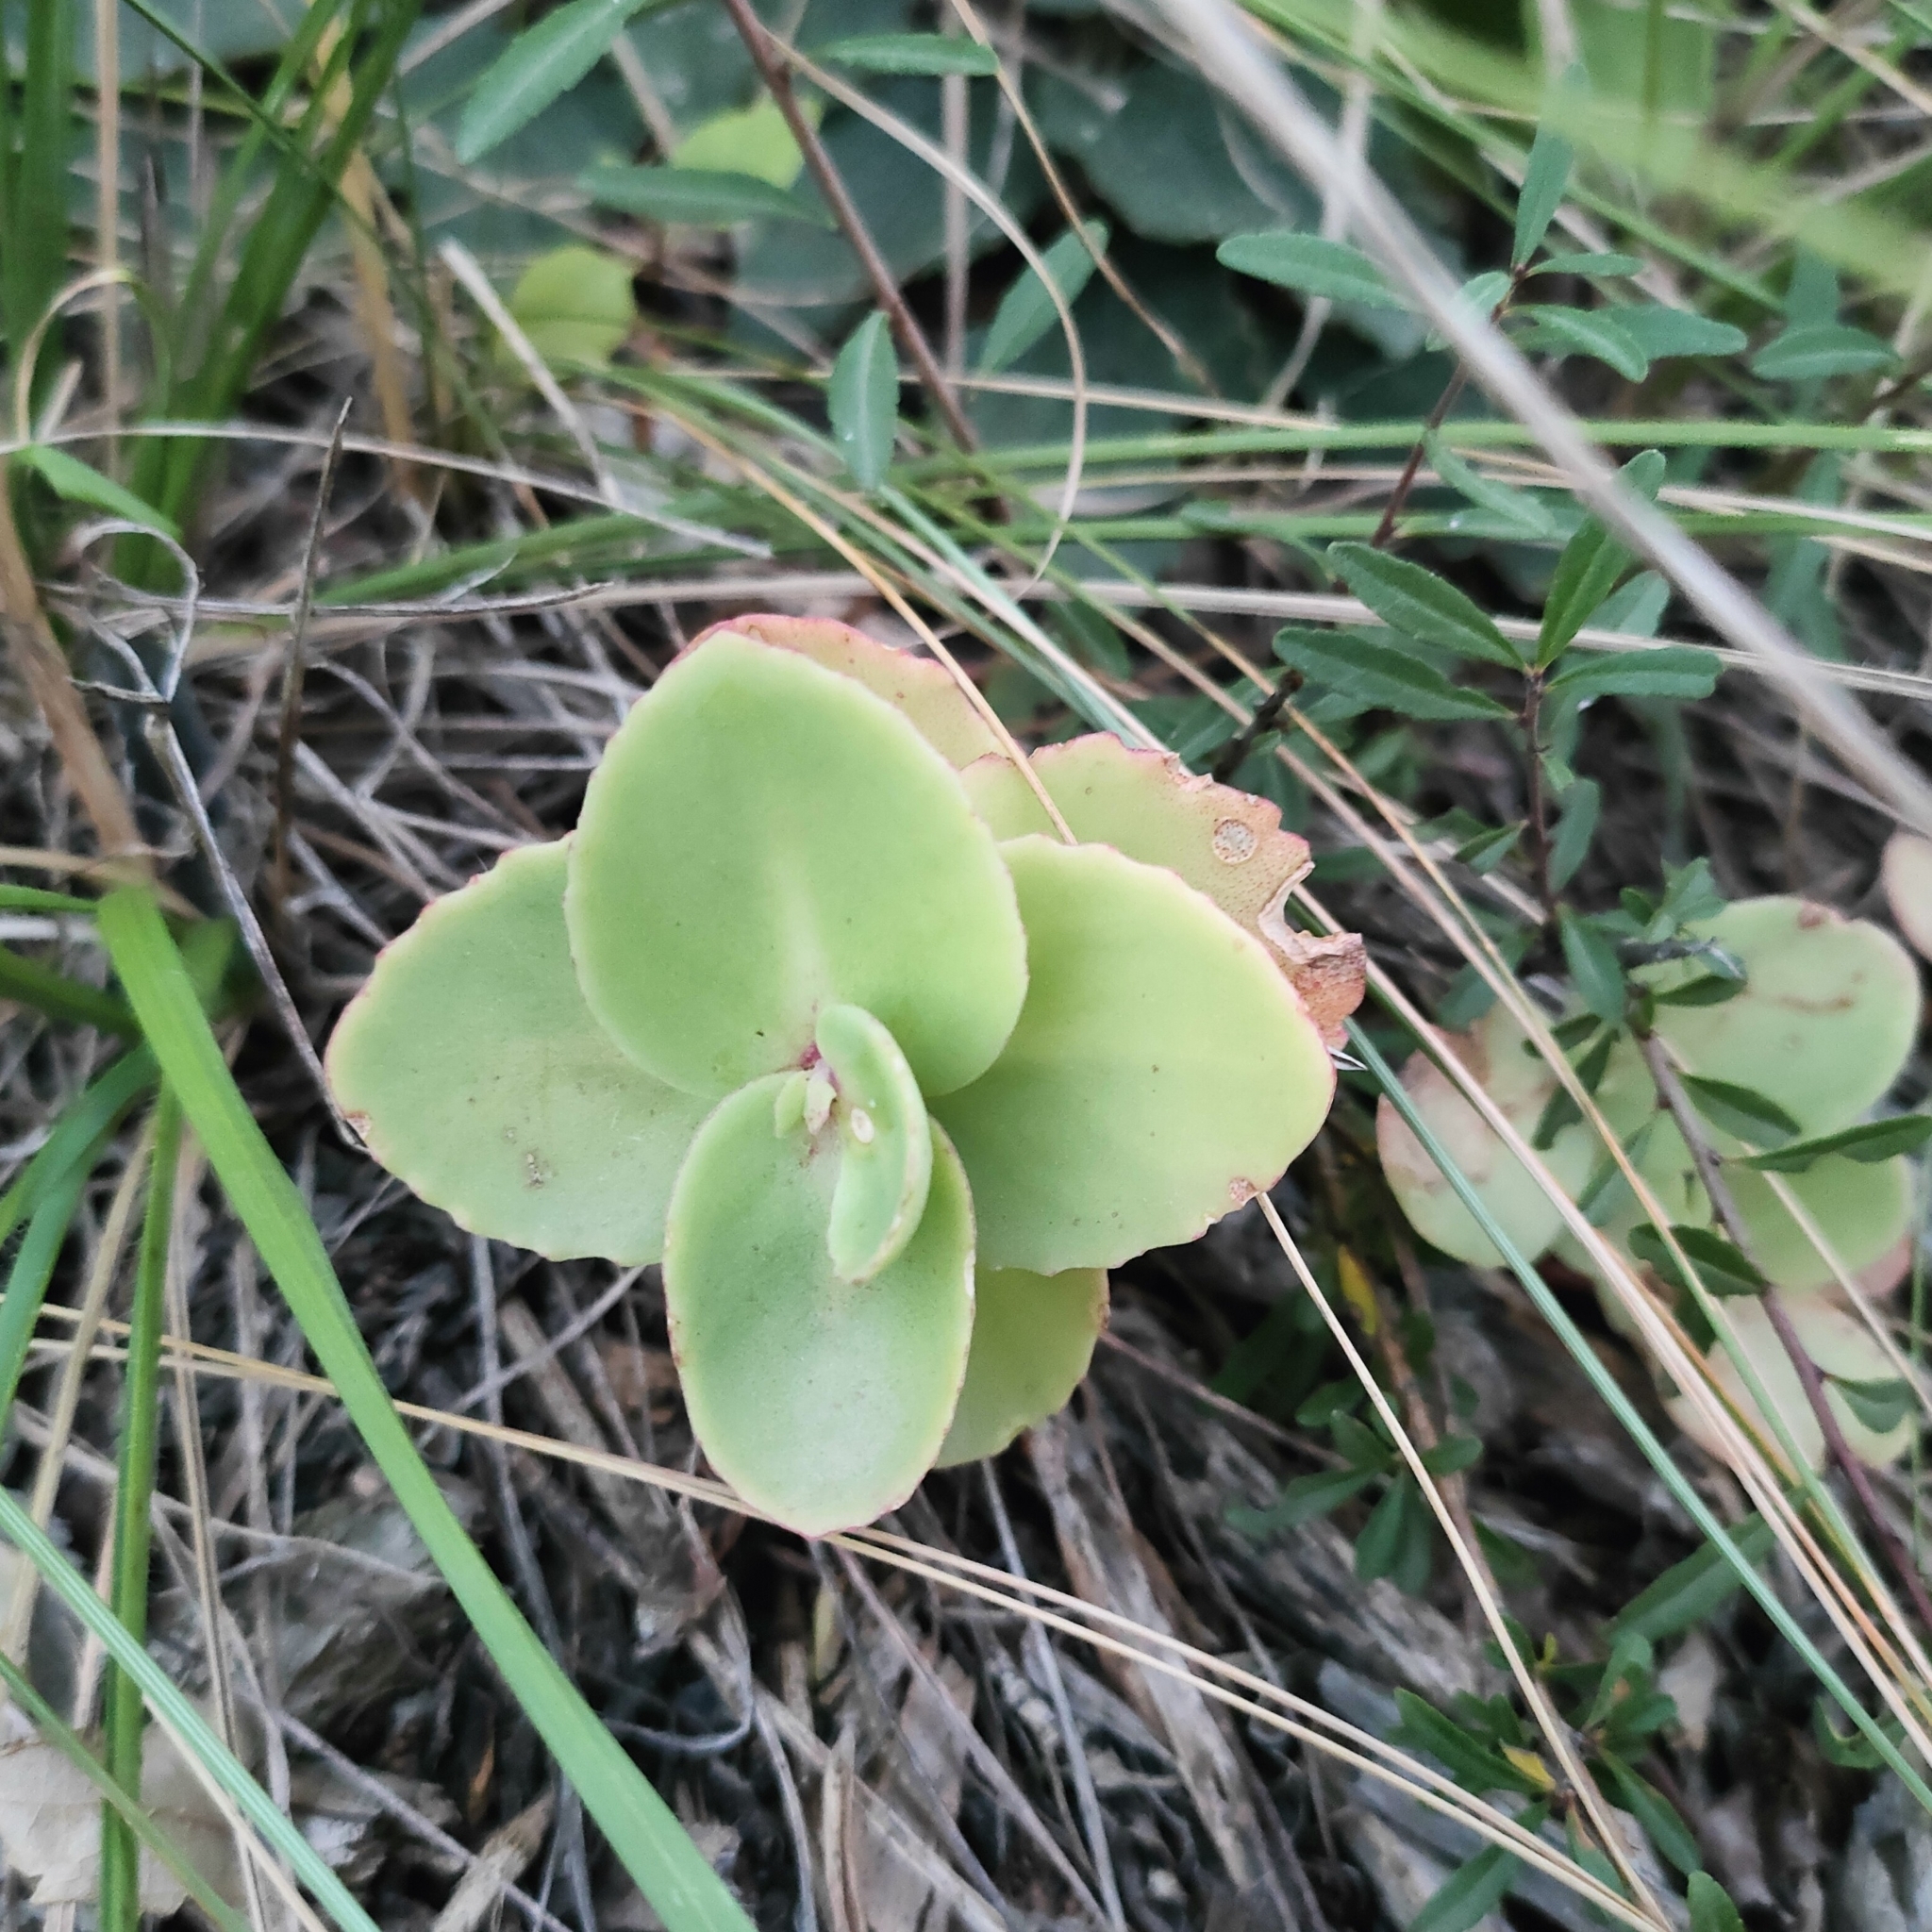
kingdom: Plantae
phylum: Tracheophyta
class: Magnoliopsida
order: Saxifragales
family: Crassulaceae
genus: Hylotelephium
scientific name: Hylotelephium maximum
